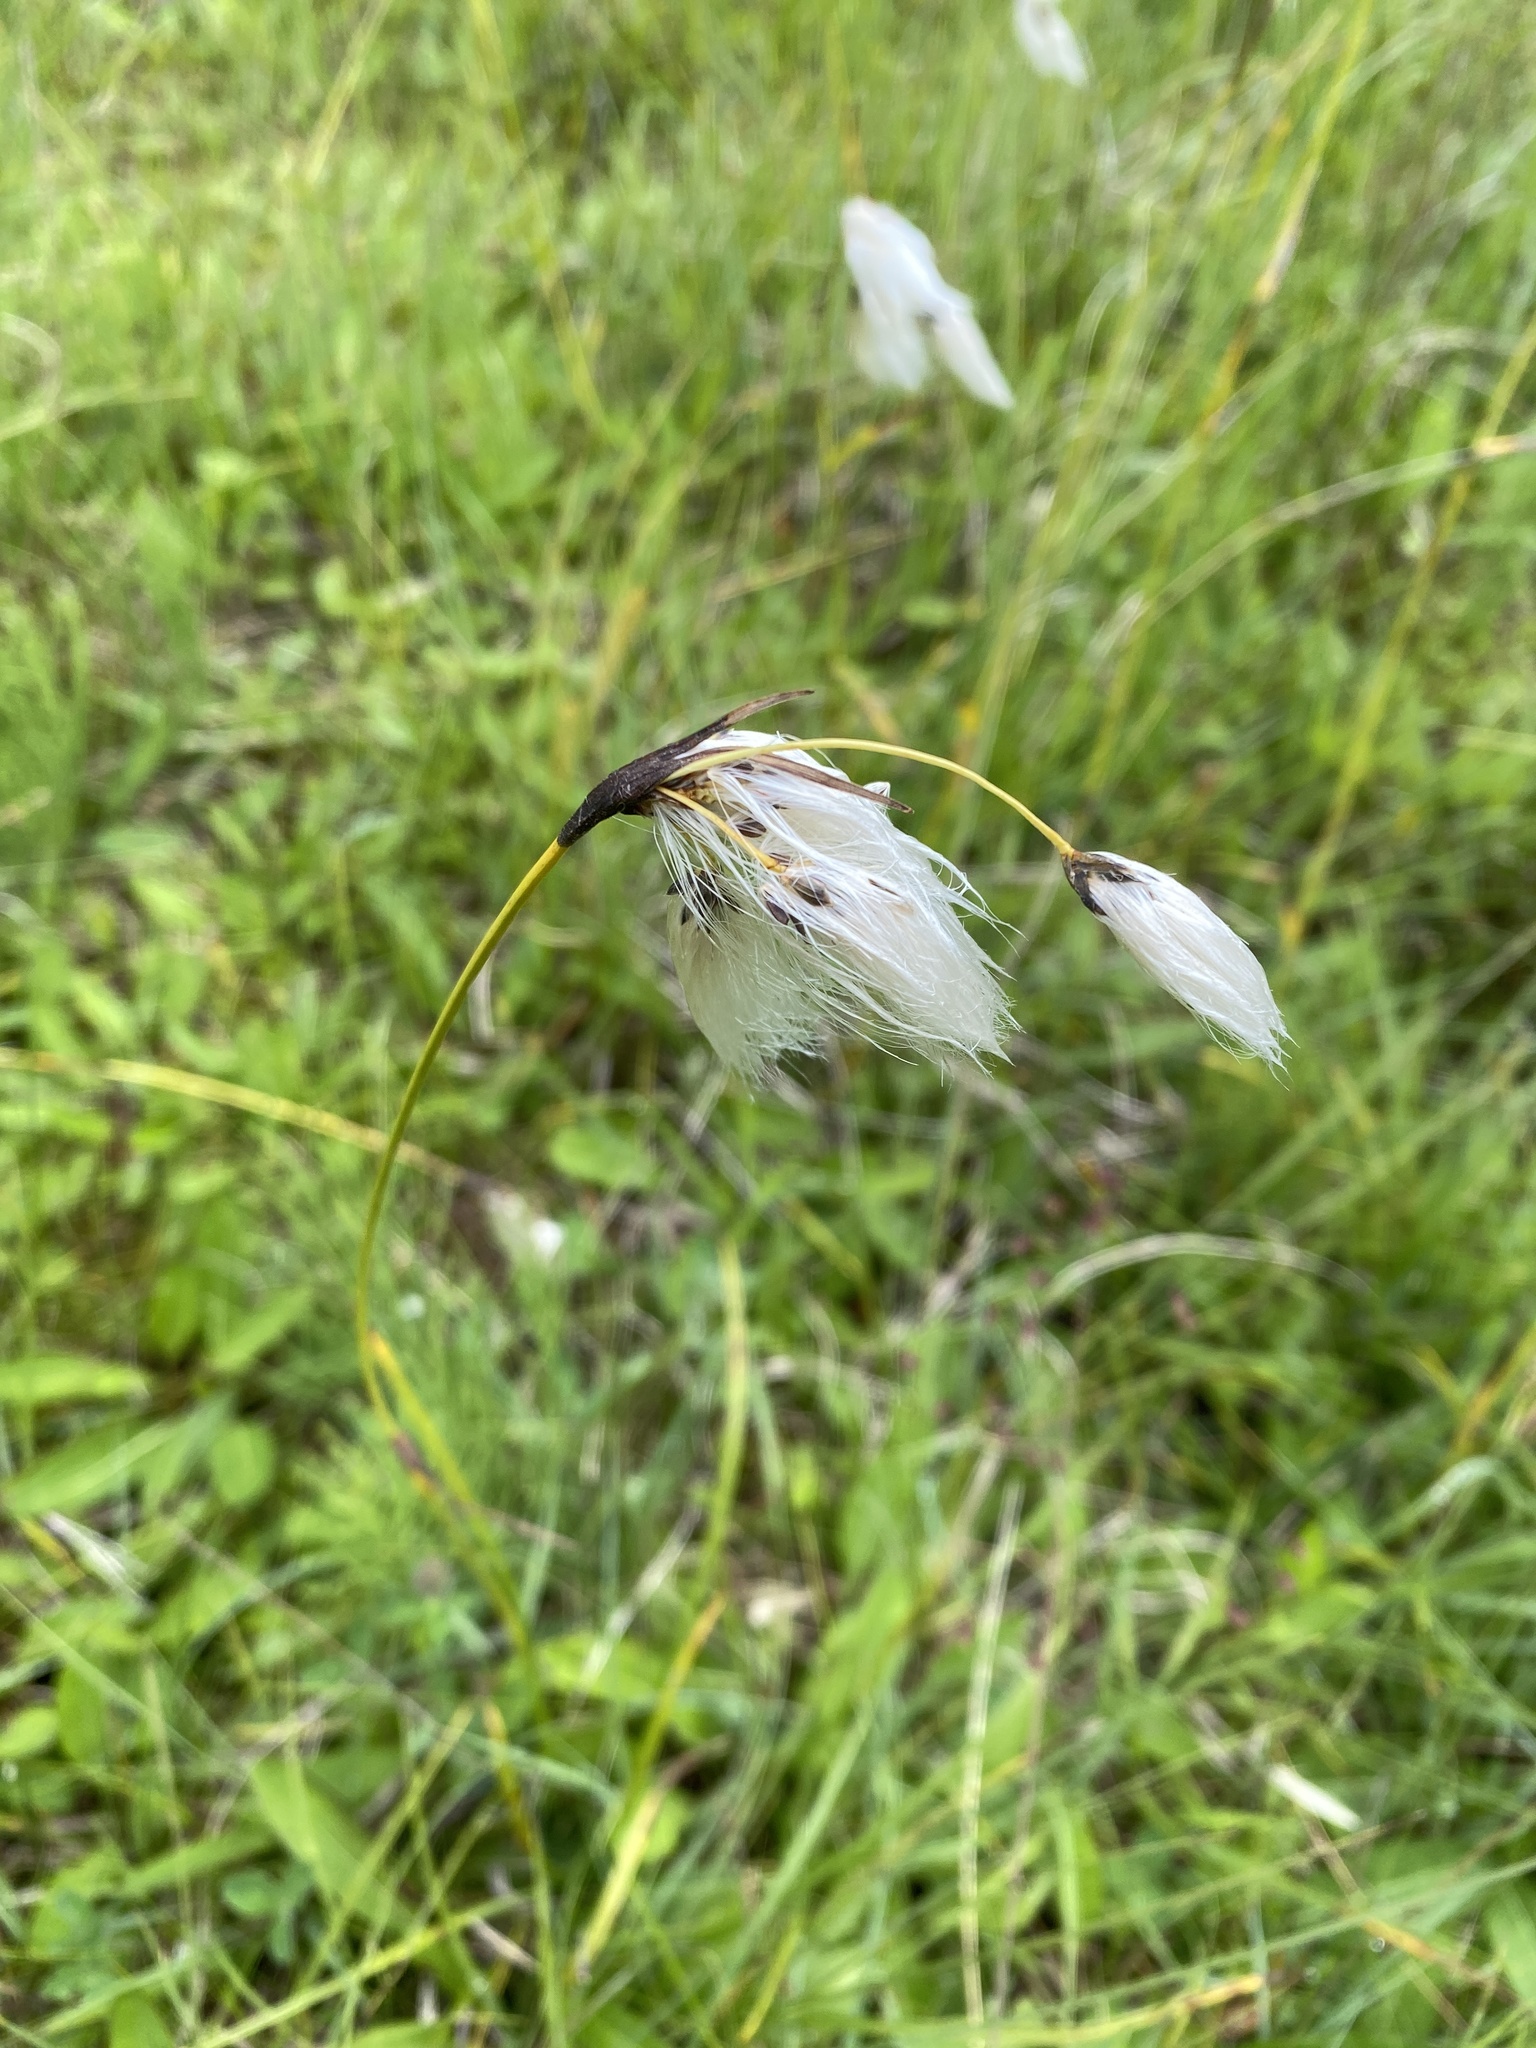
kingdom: Plantae
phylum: Tracheophyta
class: Liliopsida
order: Poales
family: Cyperaceae
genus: Eriophorum
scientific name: Eriophorum angustifolium
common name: Common cottongrass
